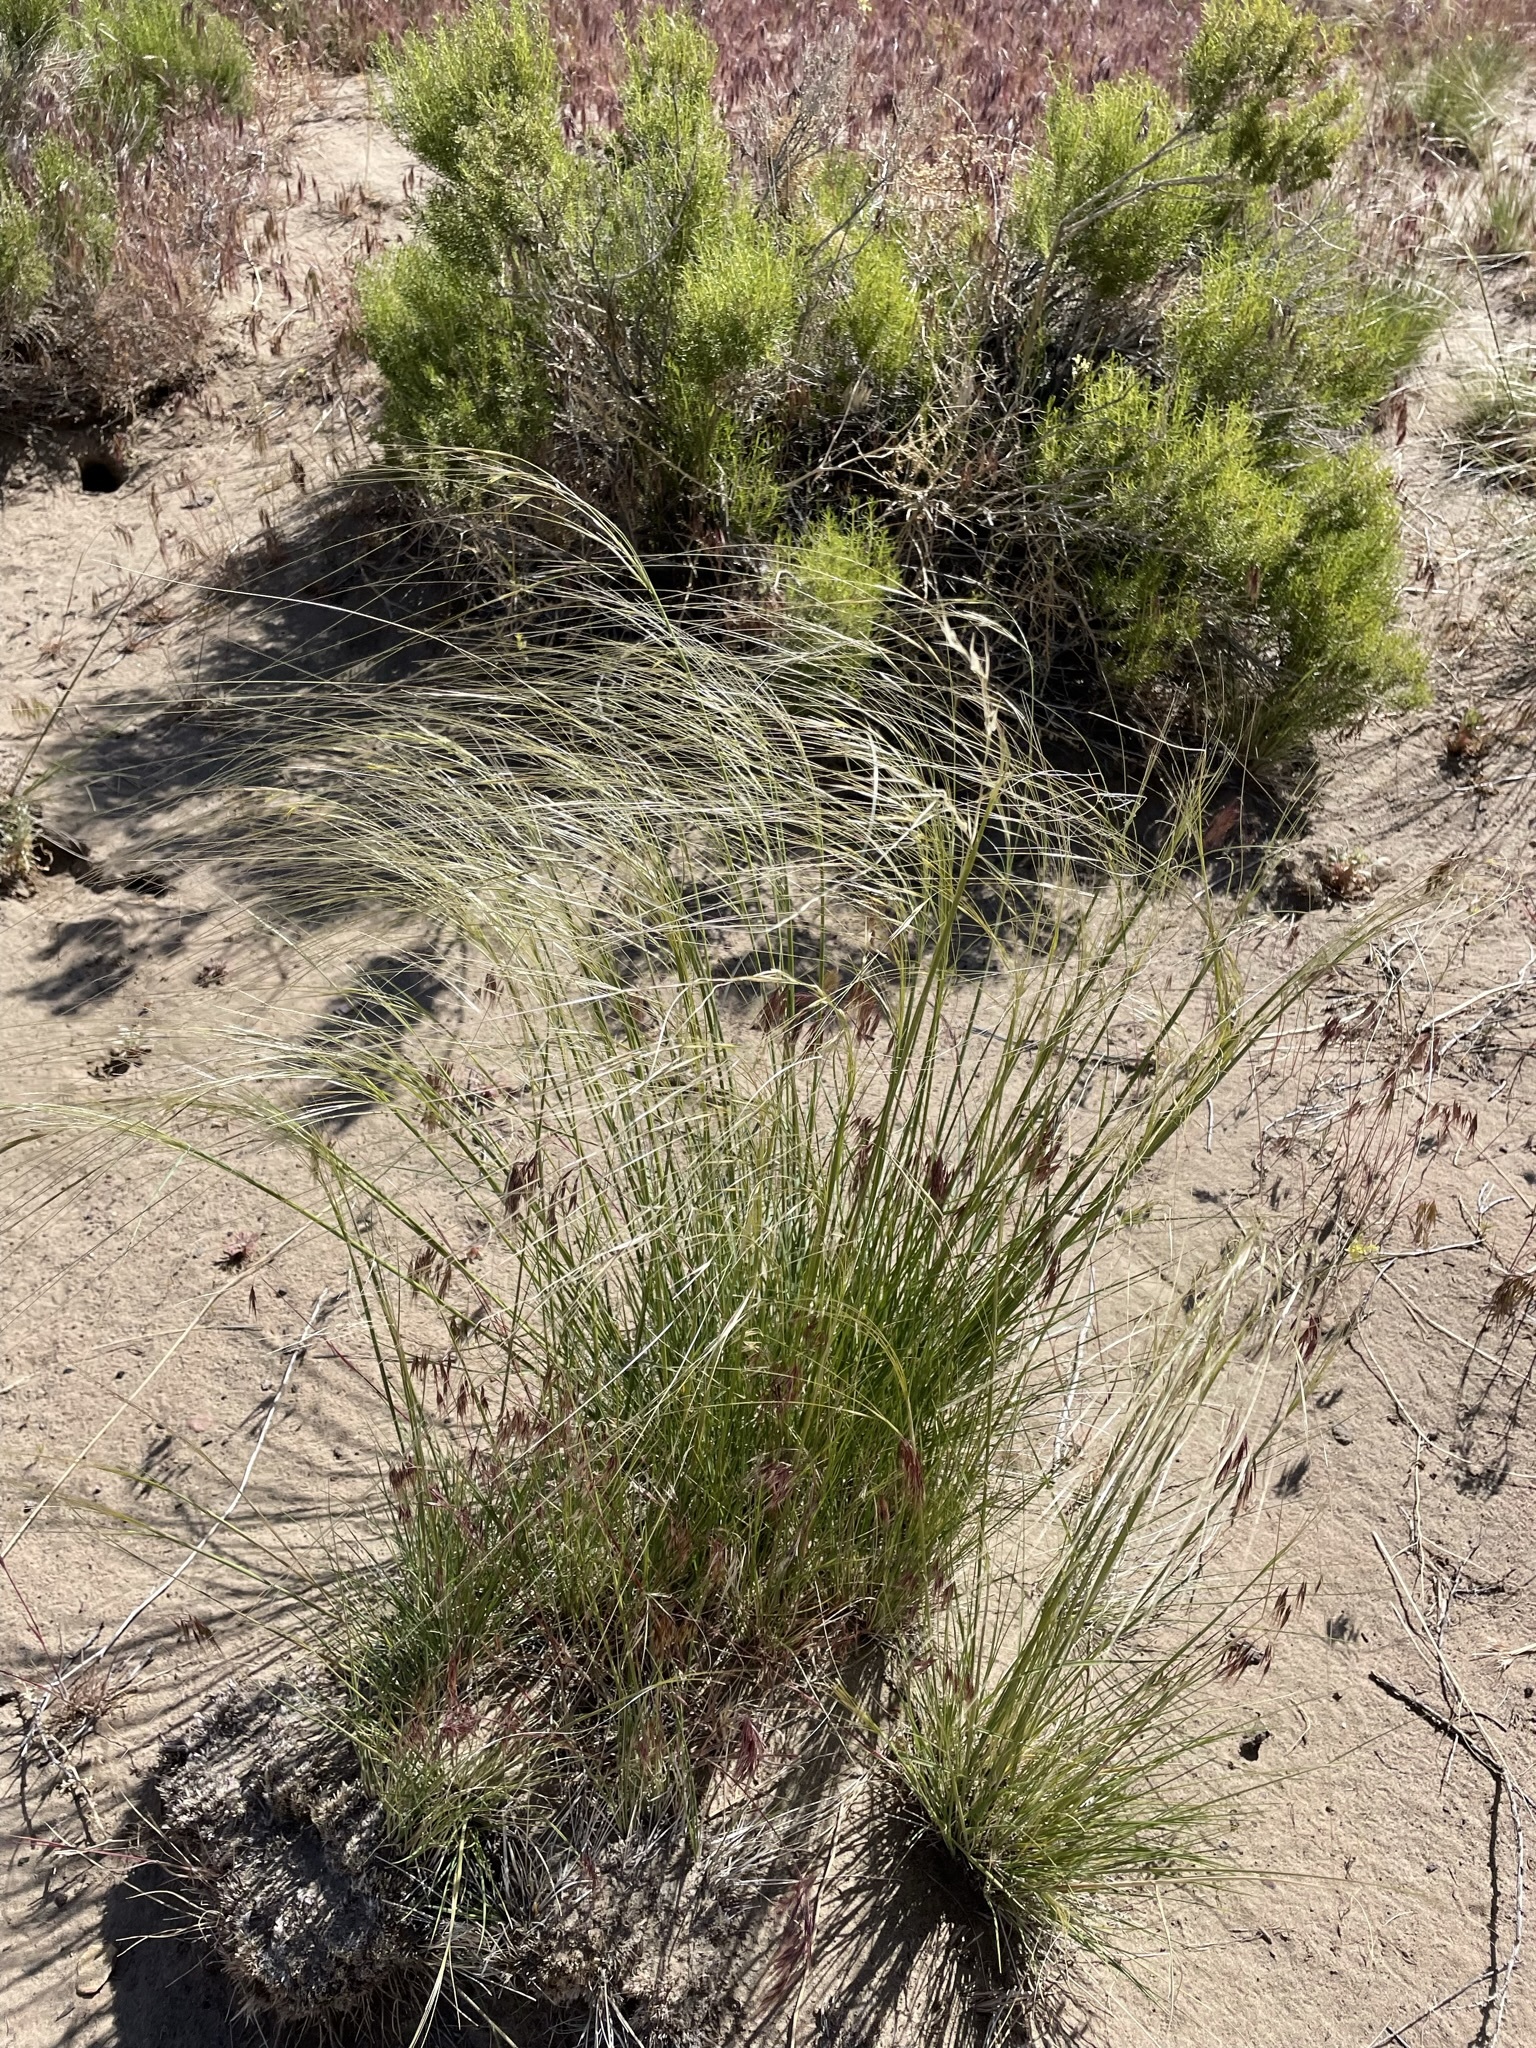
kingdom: Plantae
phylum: Tracheophyta
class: Liliopsida
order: Poales
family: Poaceae
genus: Hesperostipa
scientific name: Hesperostipa comata
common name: Needle-and-thread grass
